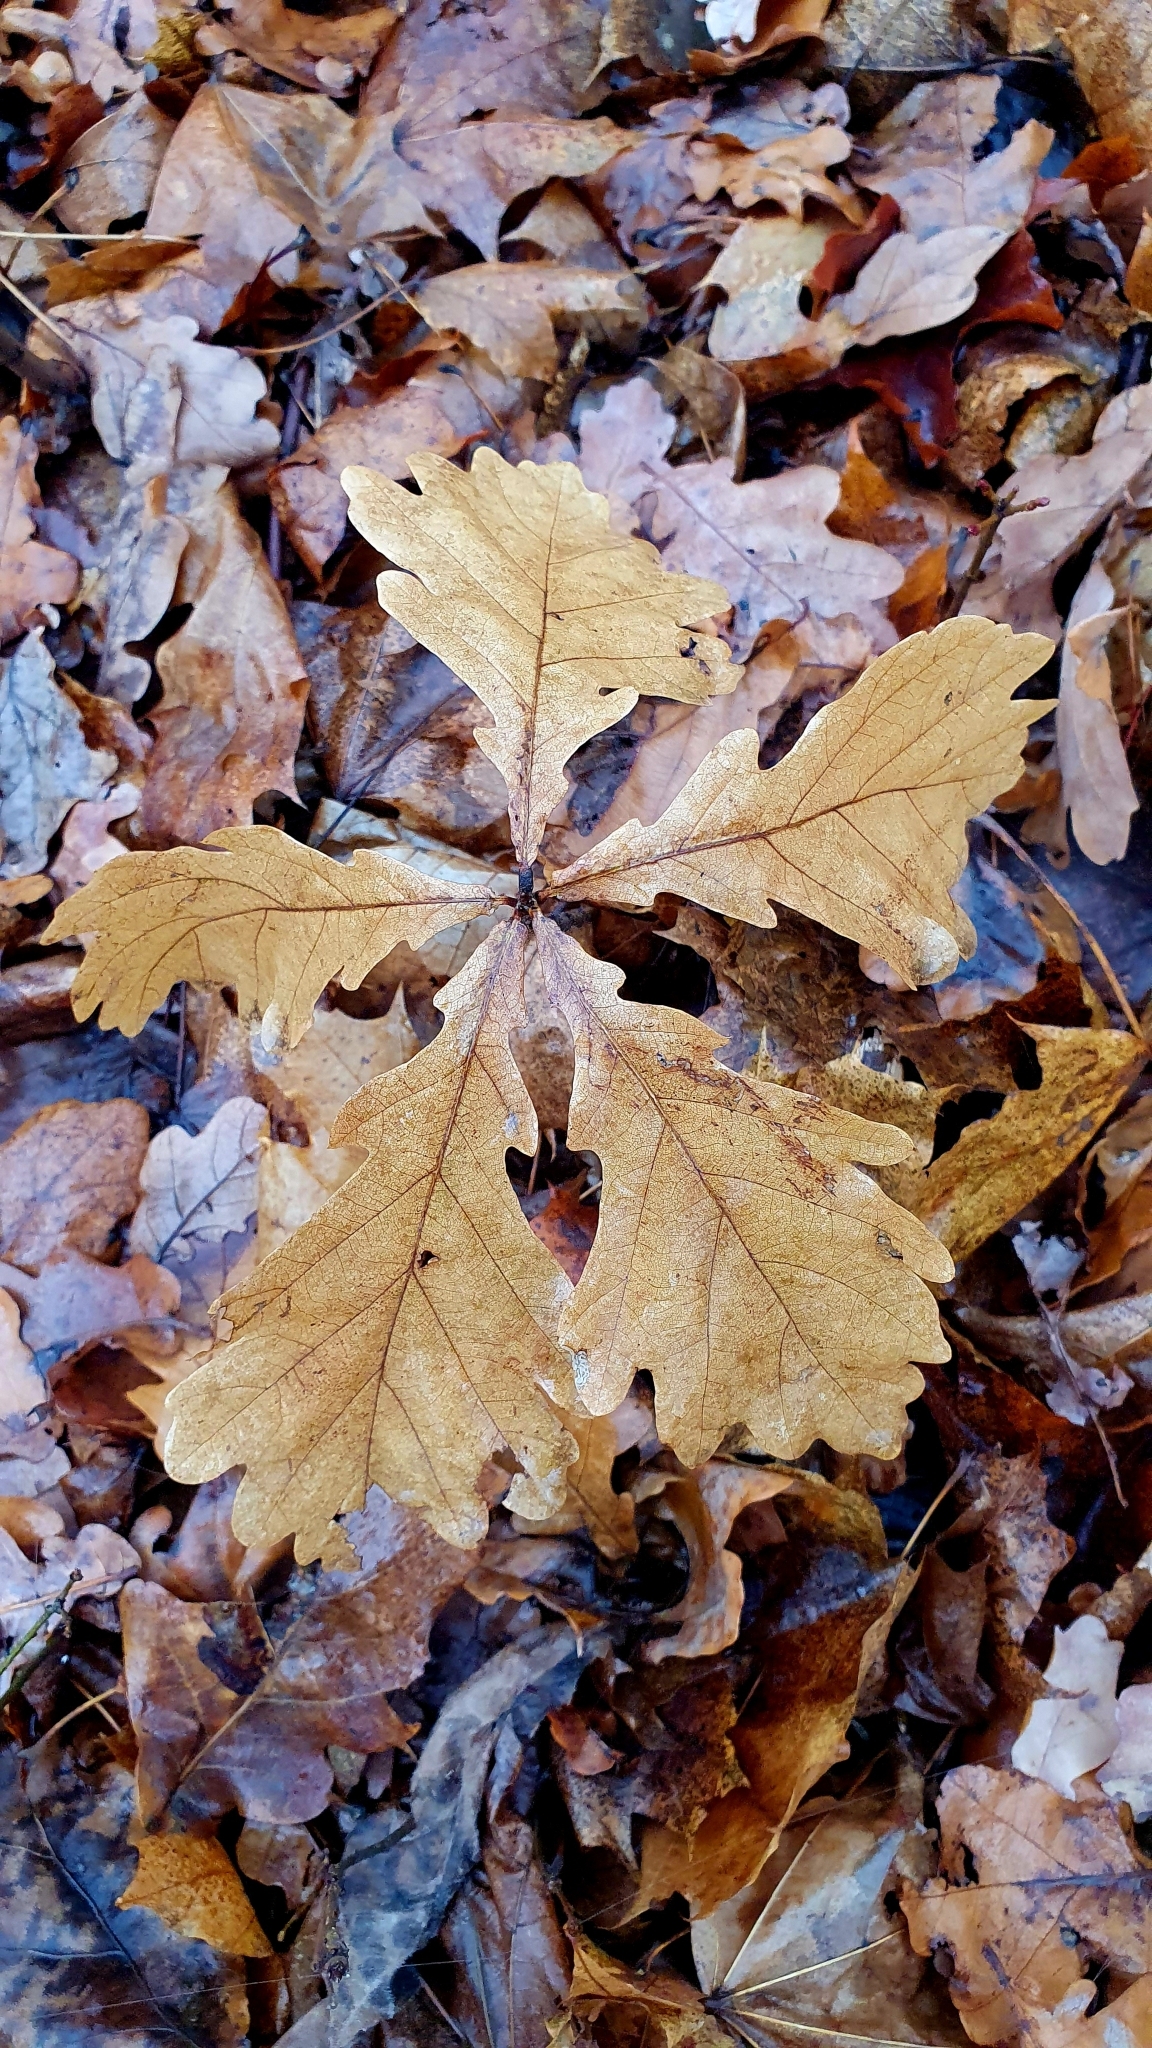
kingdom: Plantae
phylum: Tracheophyta
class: Magnoliopsida
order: Fagales
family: Fagaceae
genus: Quercus
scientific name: Quercus robur
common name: Pedunculate oak
